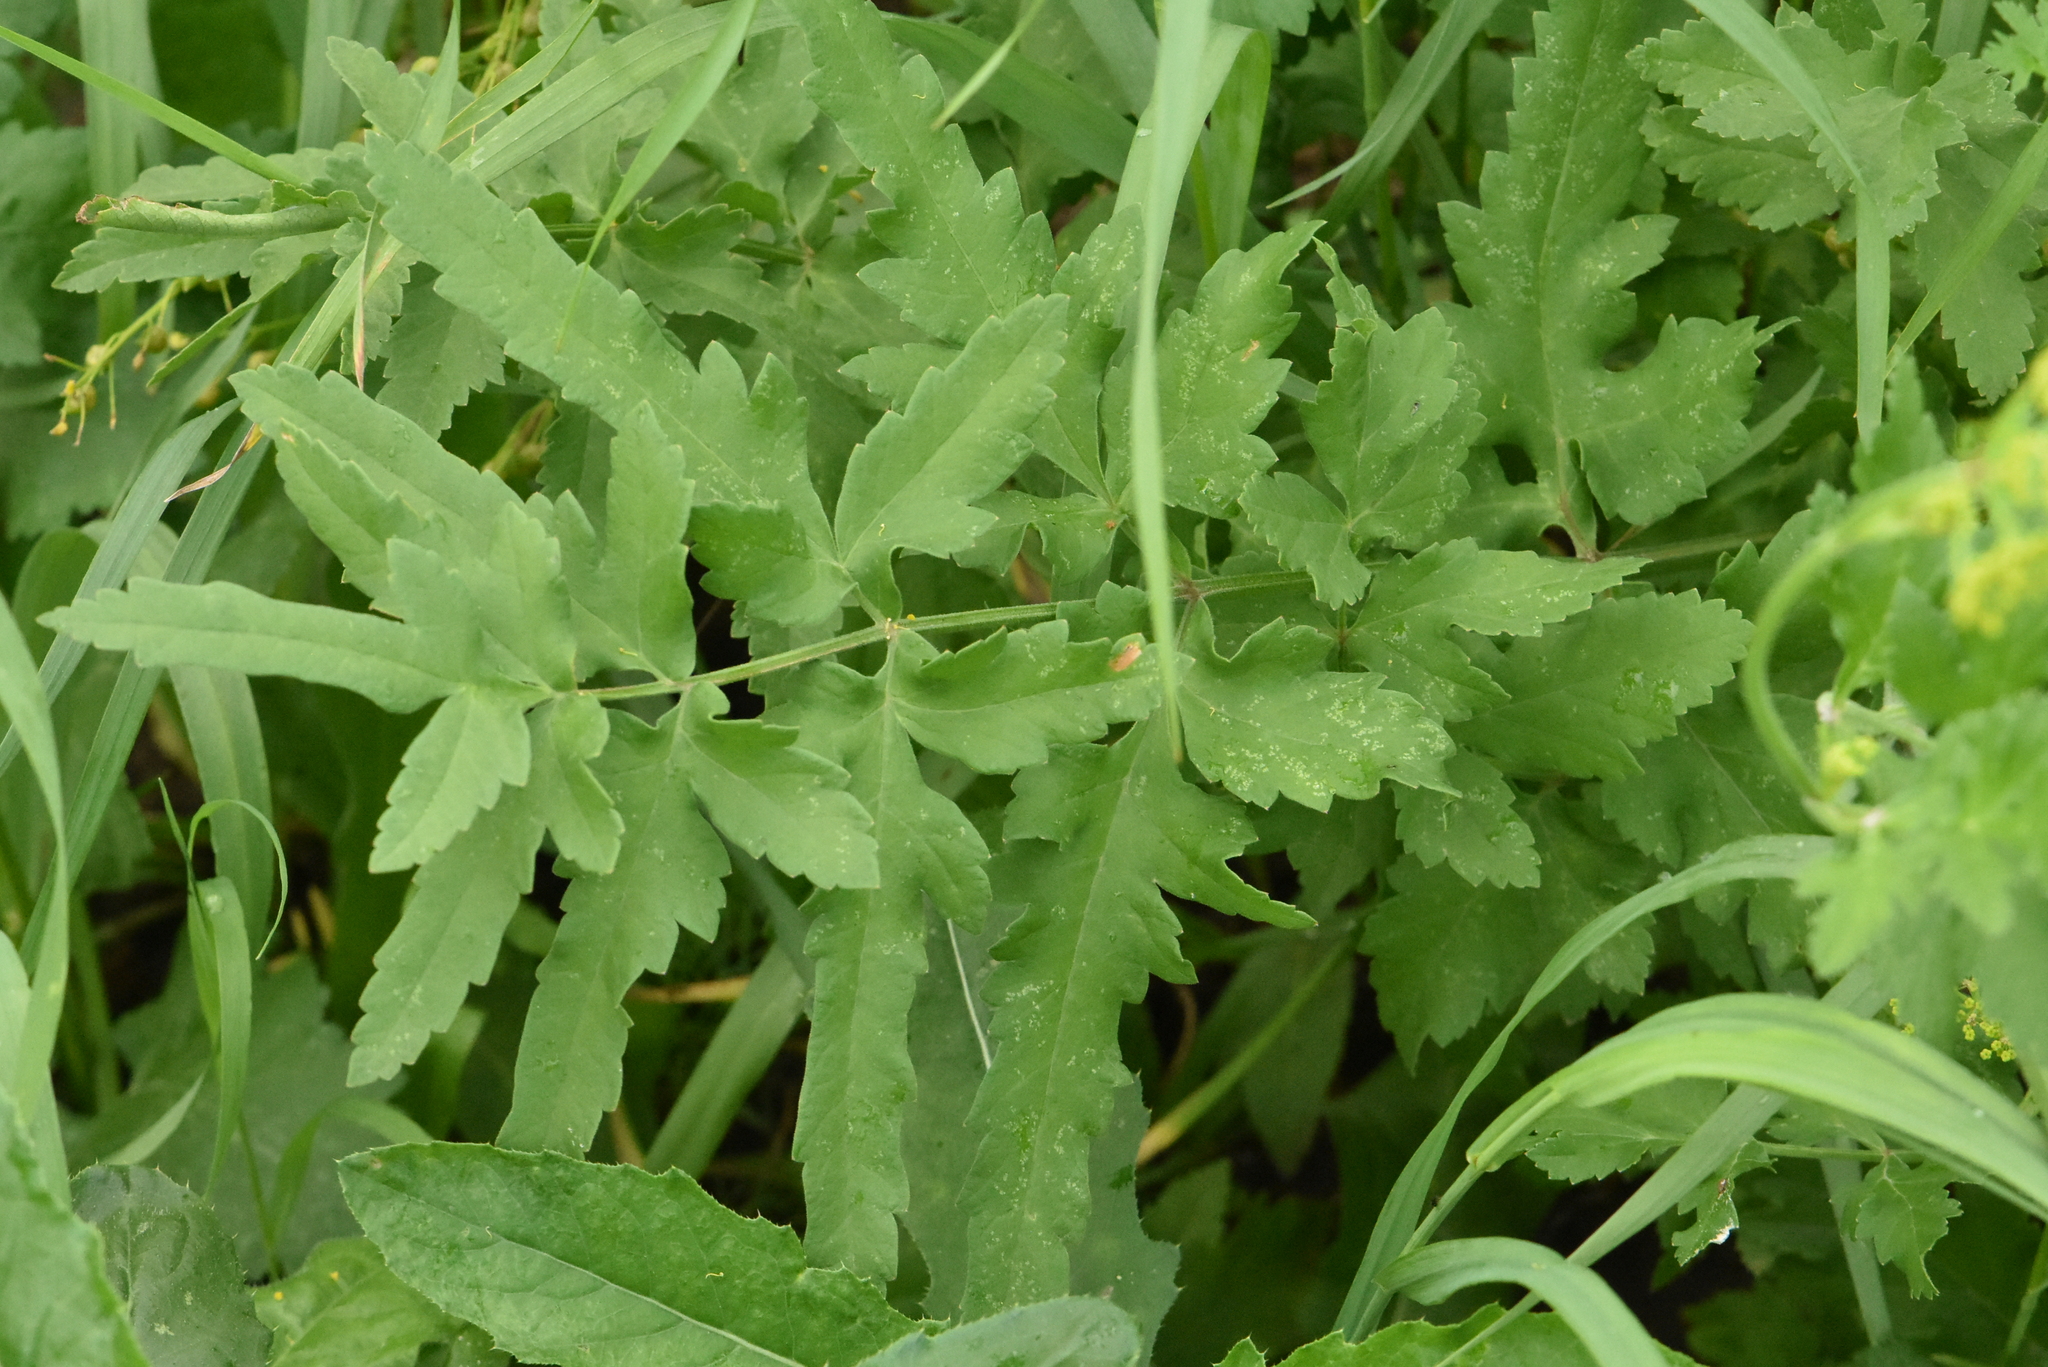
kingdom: Plantae
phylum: Tracheophyta
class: Magnoliopsida
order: Apiales
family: Apiaceae
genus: Pastinaca
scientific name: Pastinaca sativa
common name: Wild parsnip
